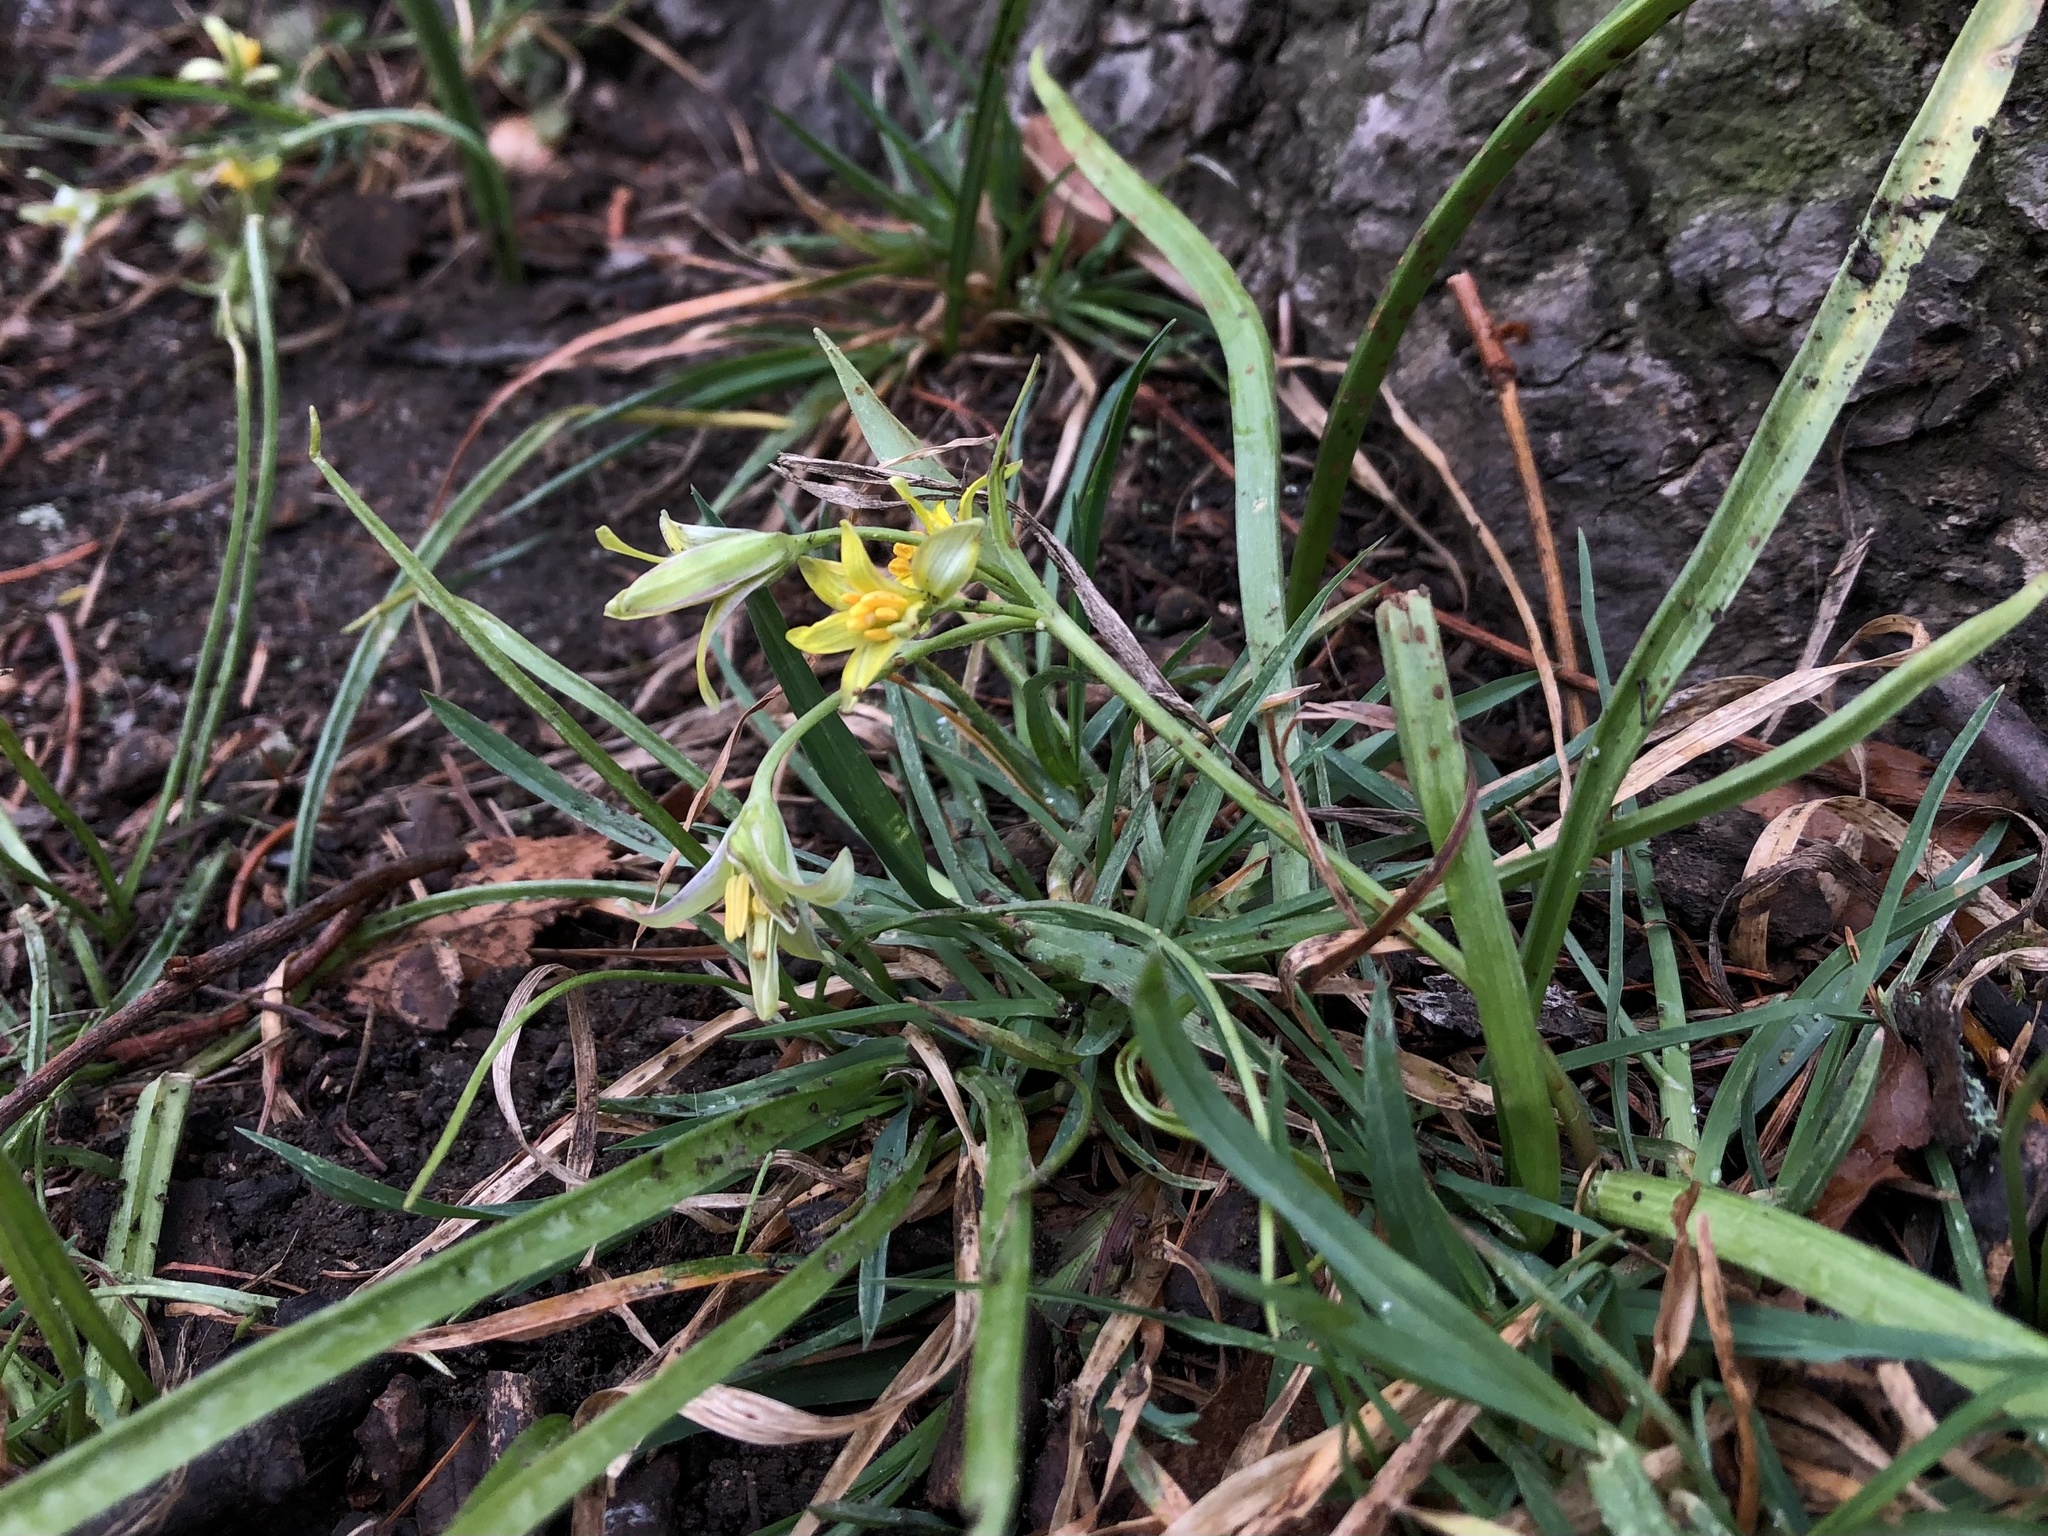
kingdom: Plantae
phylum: Tracheophyta
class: Liliopsida
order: Liliales
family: Liliaceae
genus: Gagea
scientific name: Gagea lutea
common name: Yellow star-of-bethlehem
